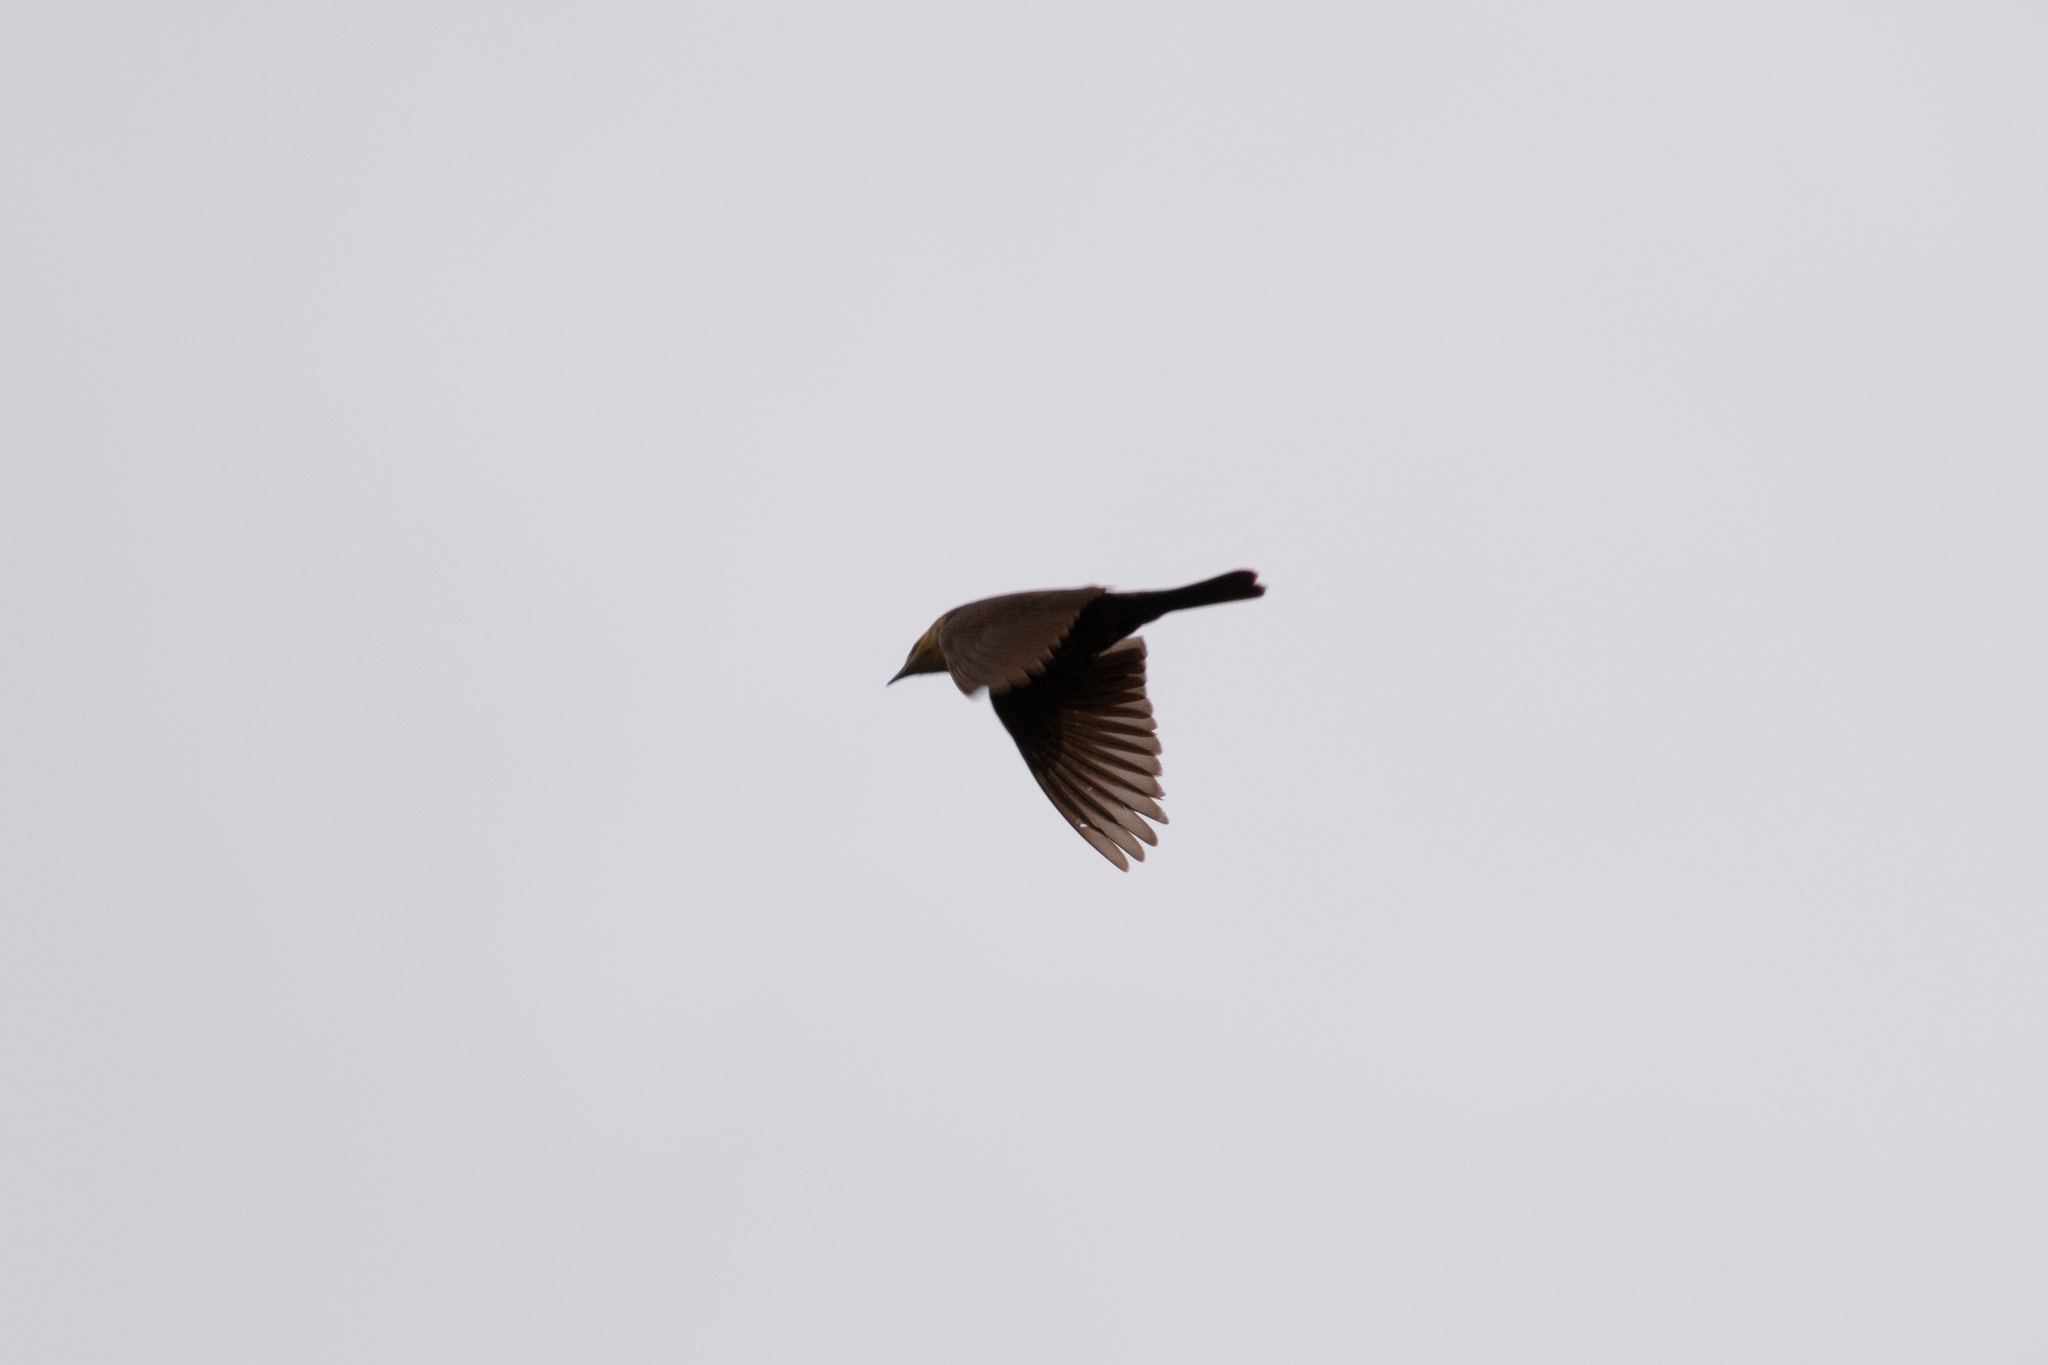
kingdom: Animalia
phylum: Chordata
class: Aves
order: Passeriformes
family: Icteridae
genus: Xanthocephalus
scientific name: Xanthocephalus xanthocephalus
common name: Yellow-headed blackbird
